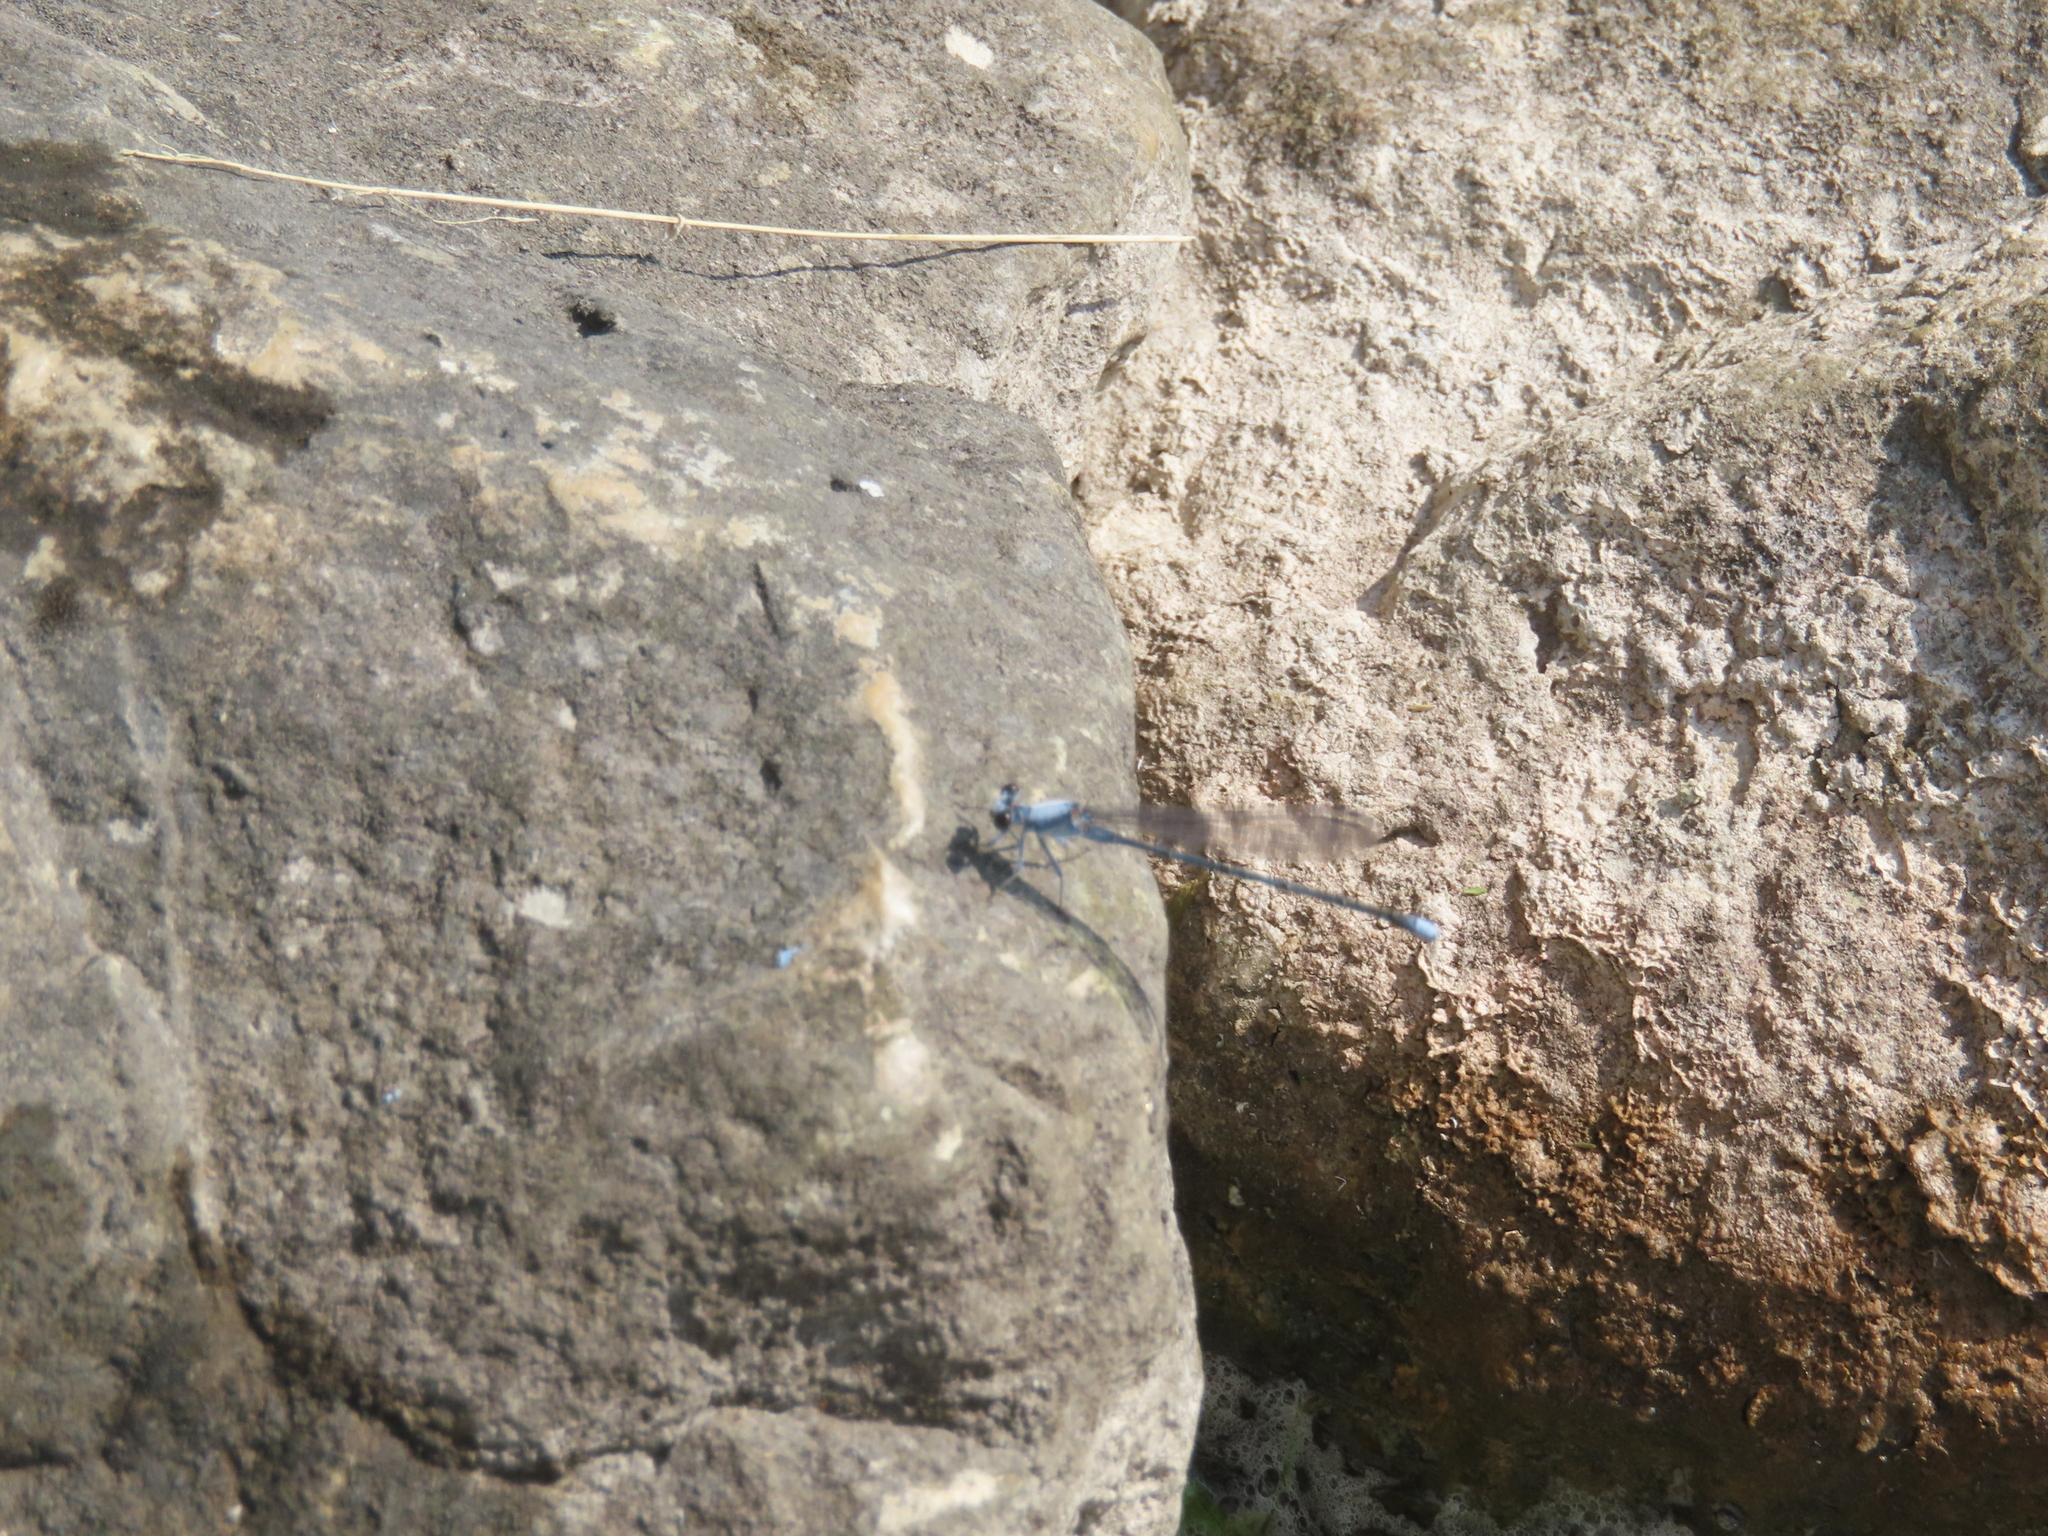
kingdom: Animalia
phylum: Arthropoda
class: Insecta
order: Odonata
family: Coenagrionidae
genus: Argia
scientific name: Argia moesta
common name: Powdered dancer
